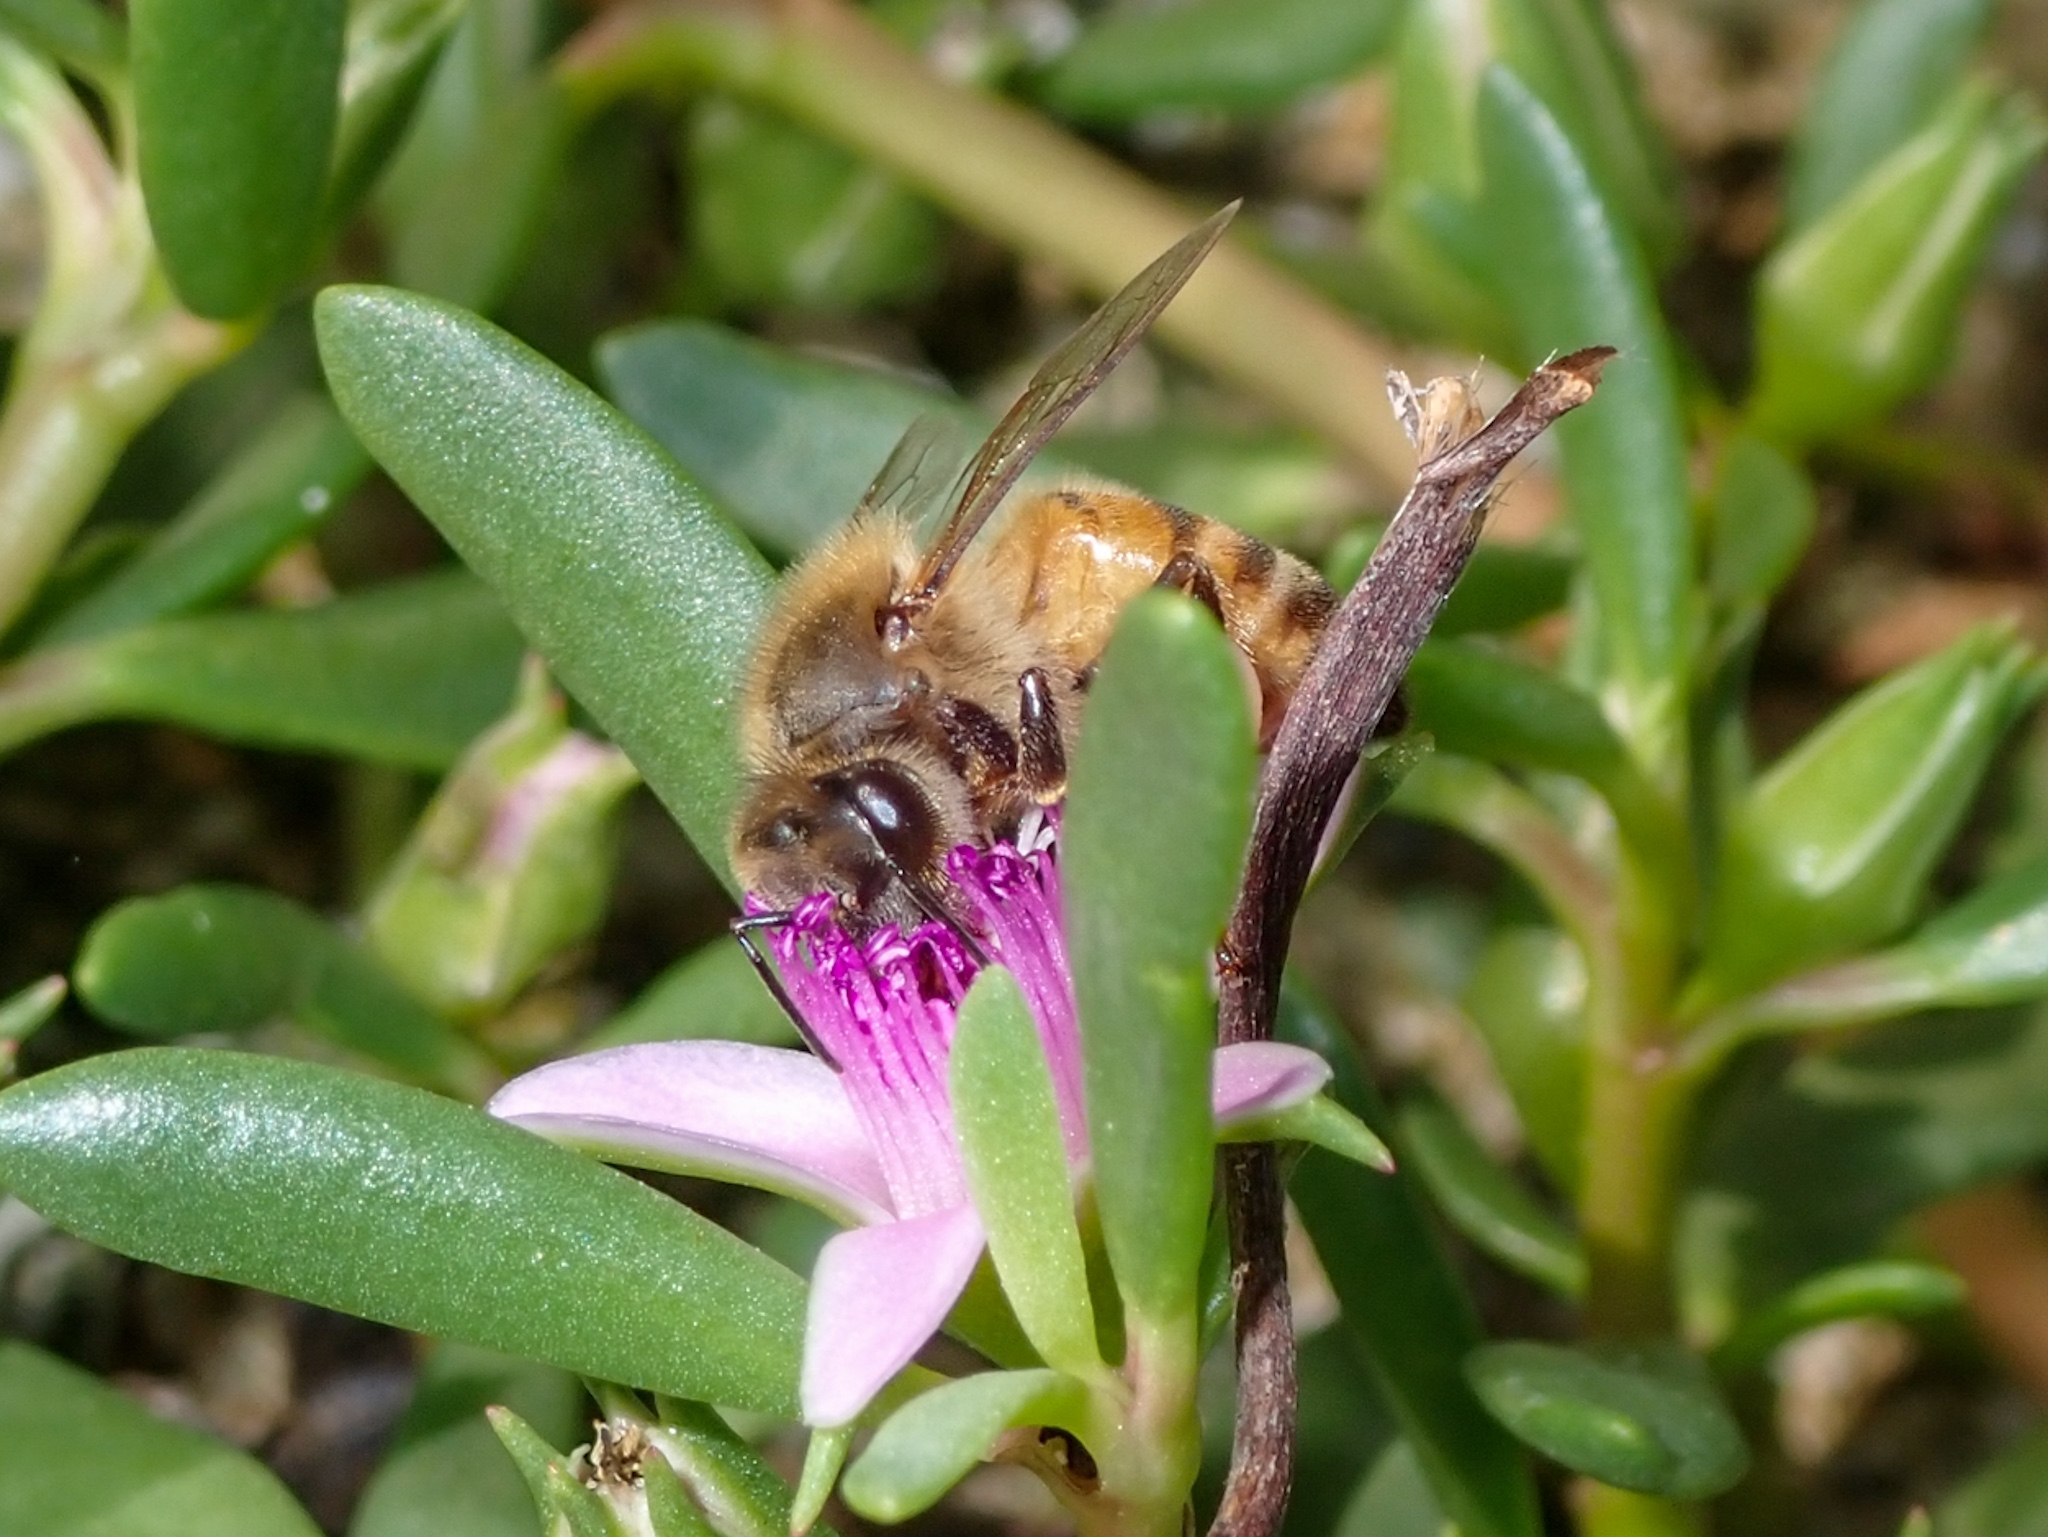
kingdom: Animalia
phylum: Arthropoda
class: Insecta
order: Hymenoptera
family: Apidae
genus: Apis
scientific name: Apis mellifera
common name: Honey bee
